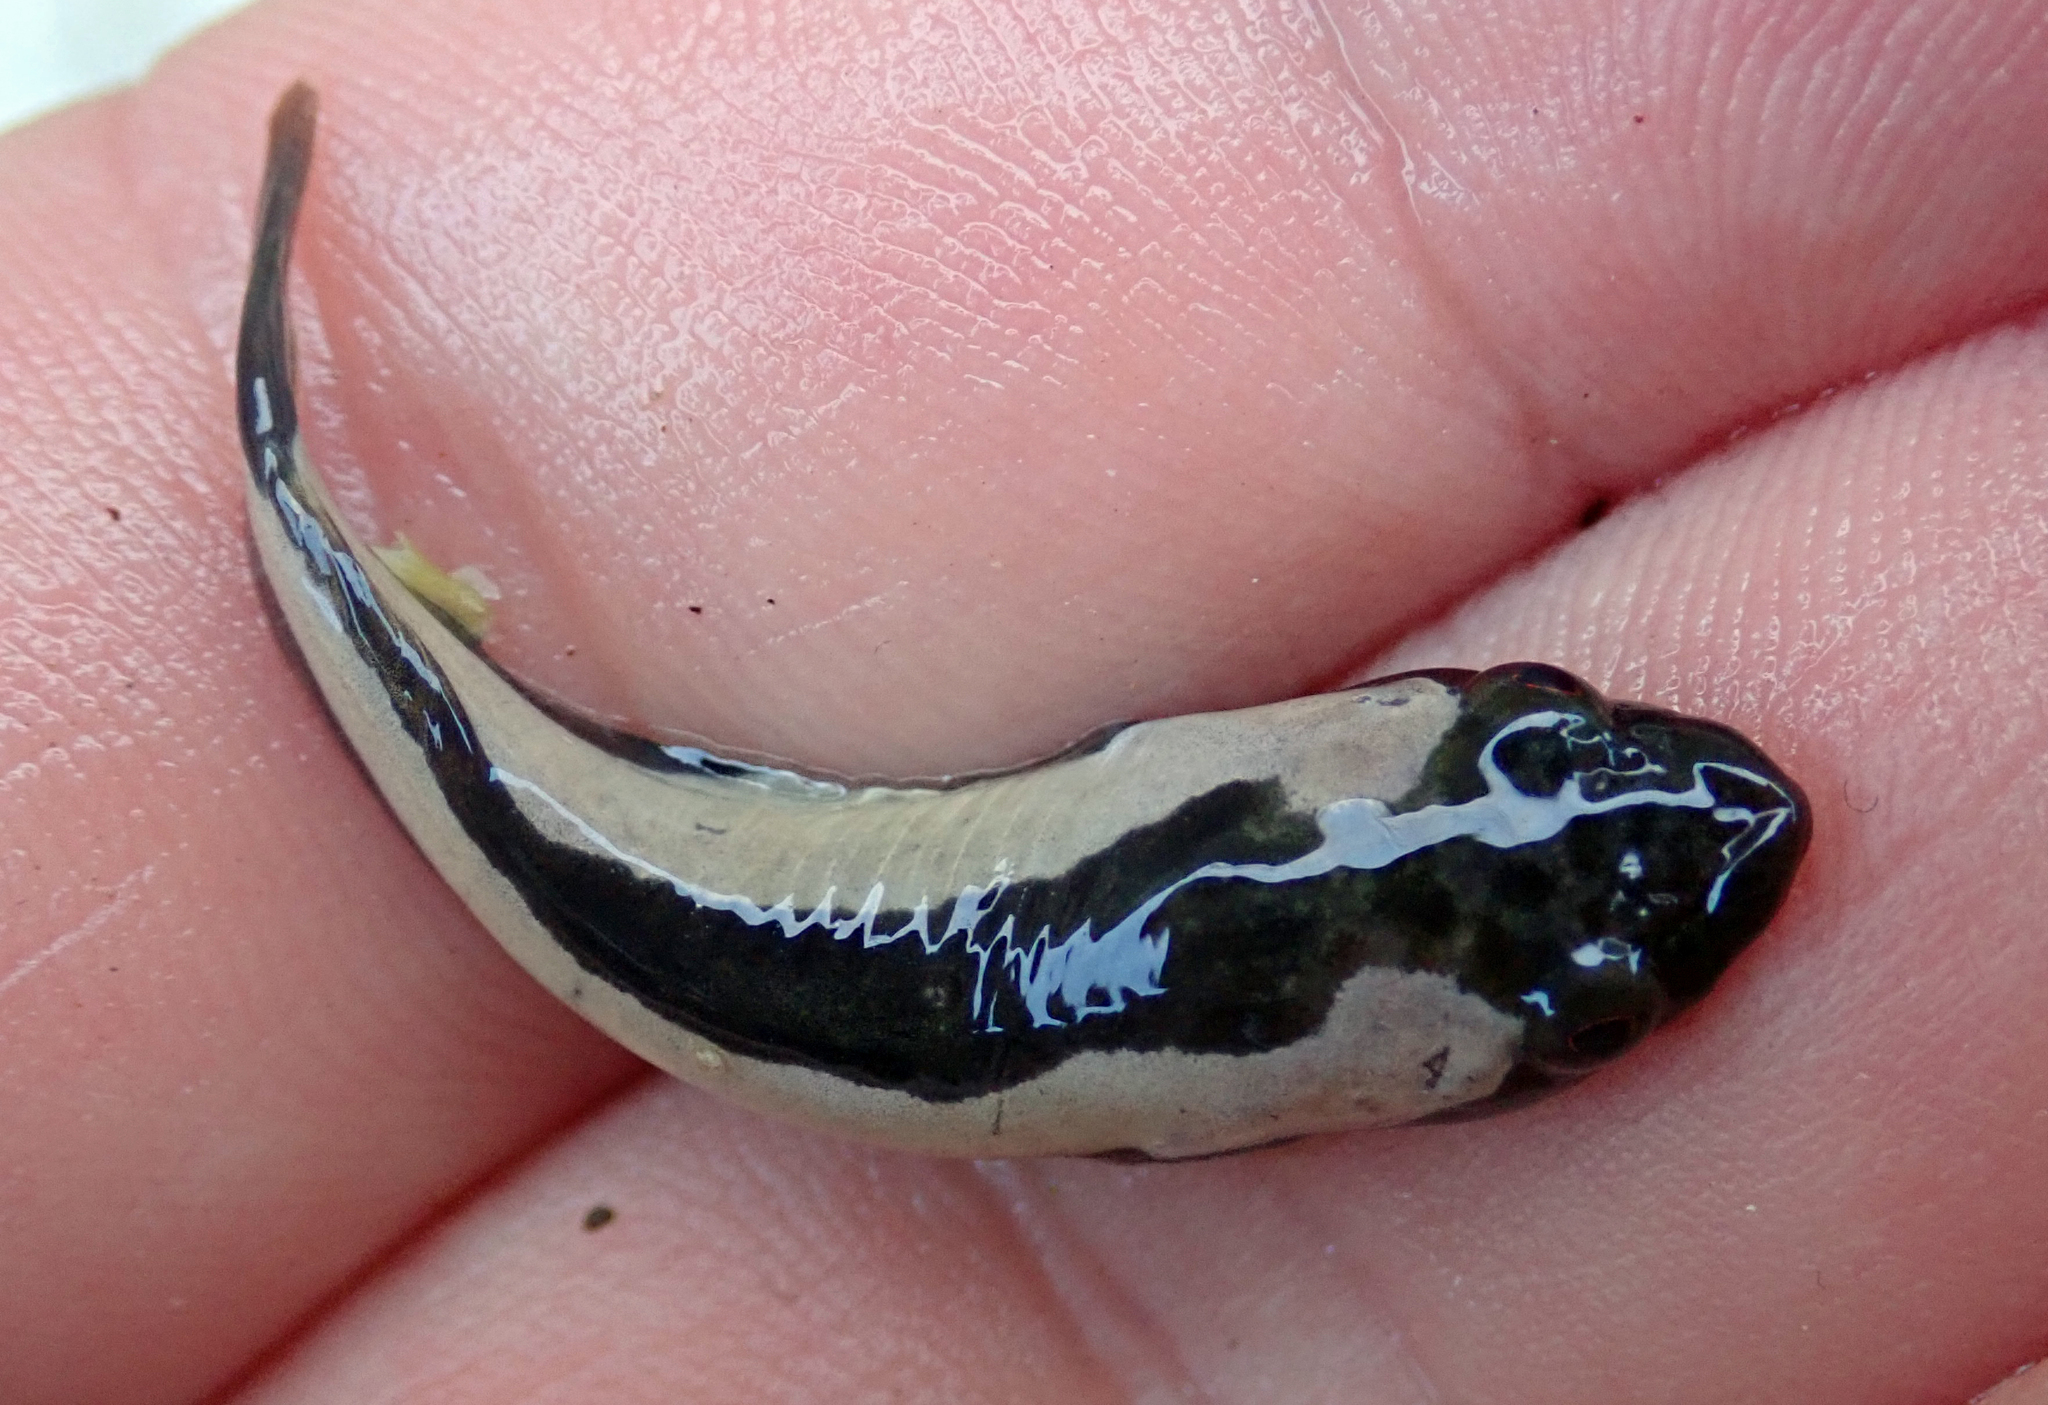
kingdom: Animalia
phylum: Chordata
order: Gobiesociformes
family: Gobiesocidae
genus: Trachelochismus
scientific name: Trachelochismus pinnulatus
